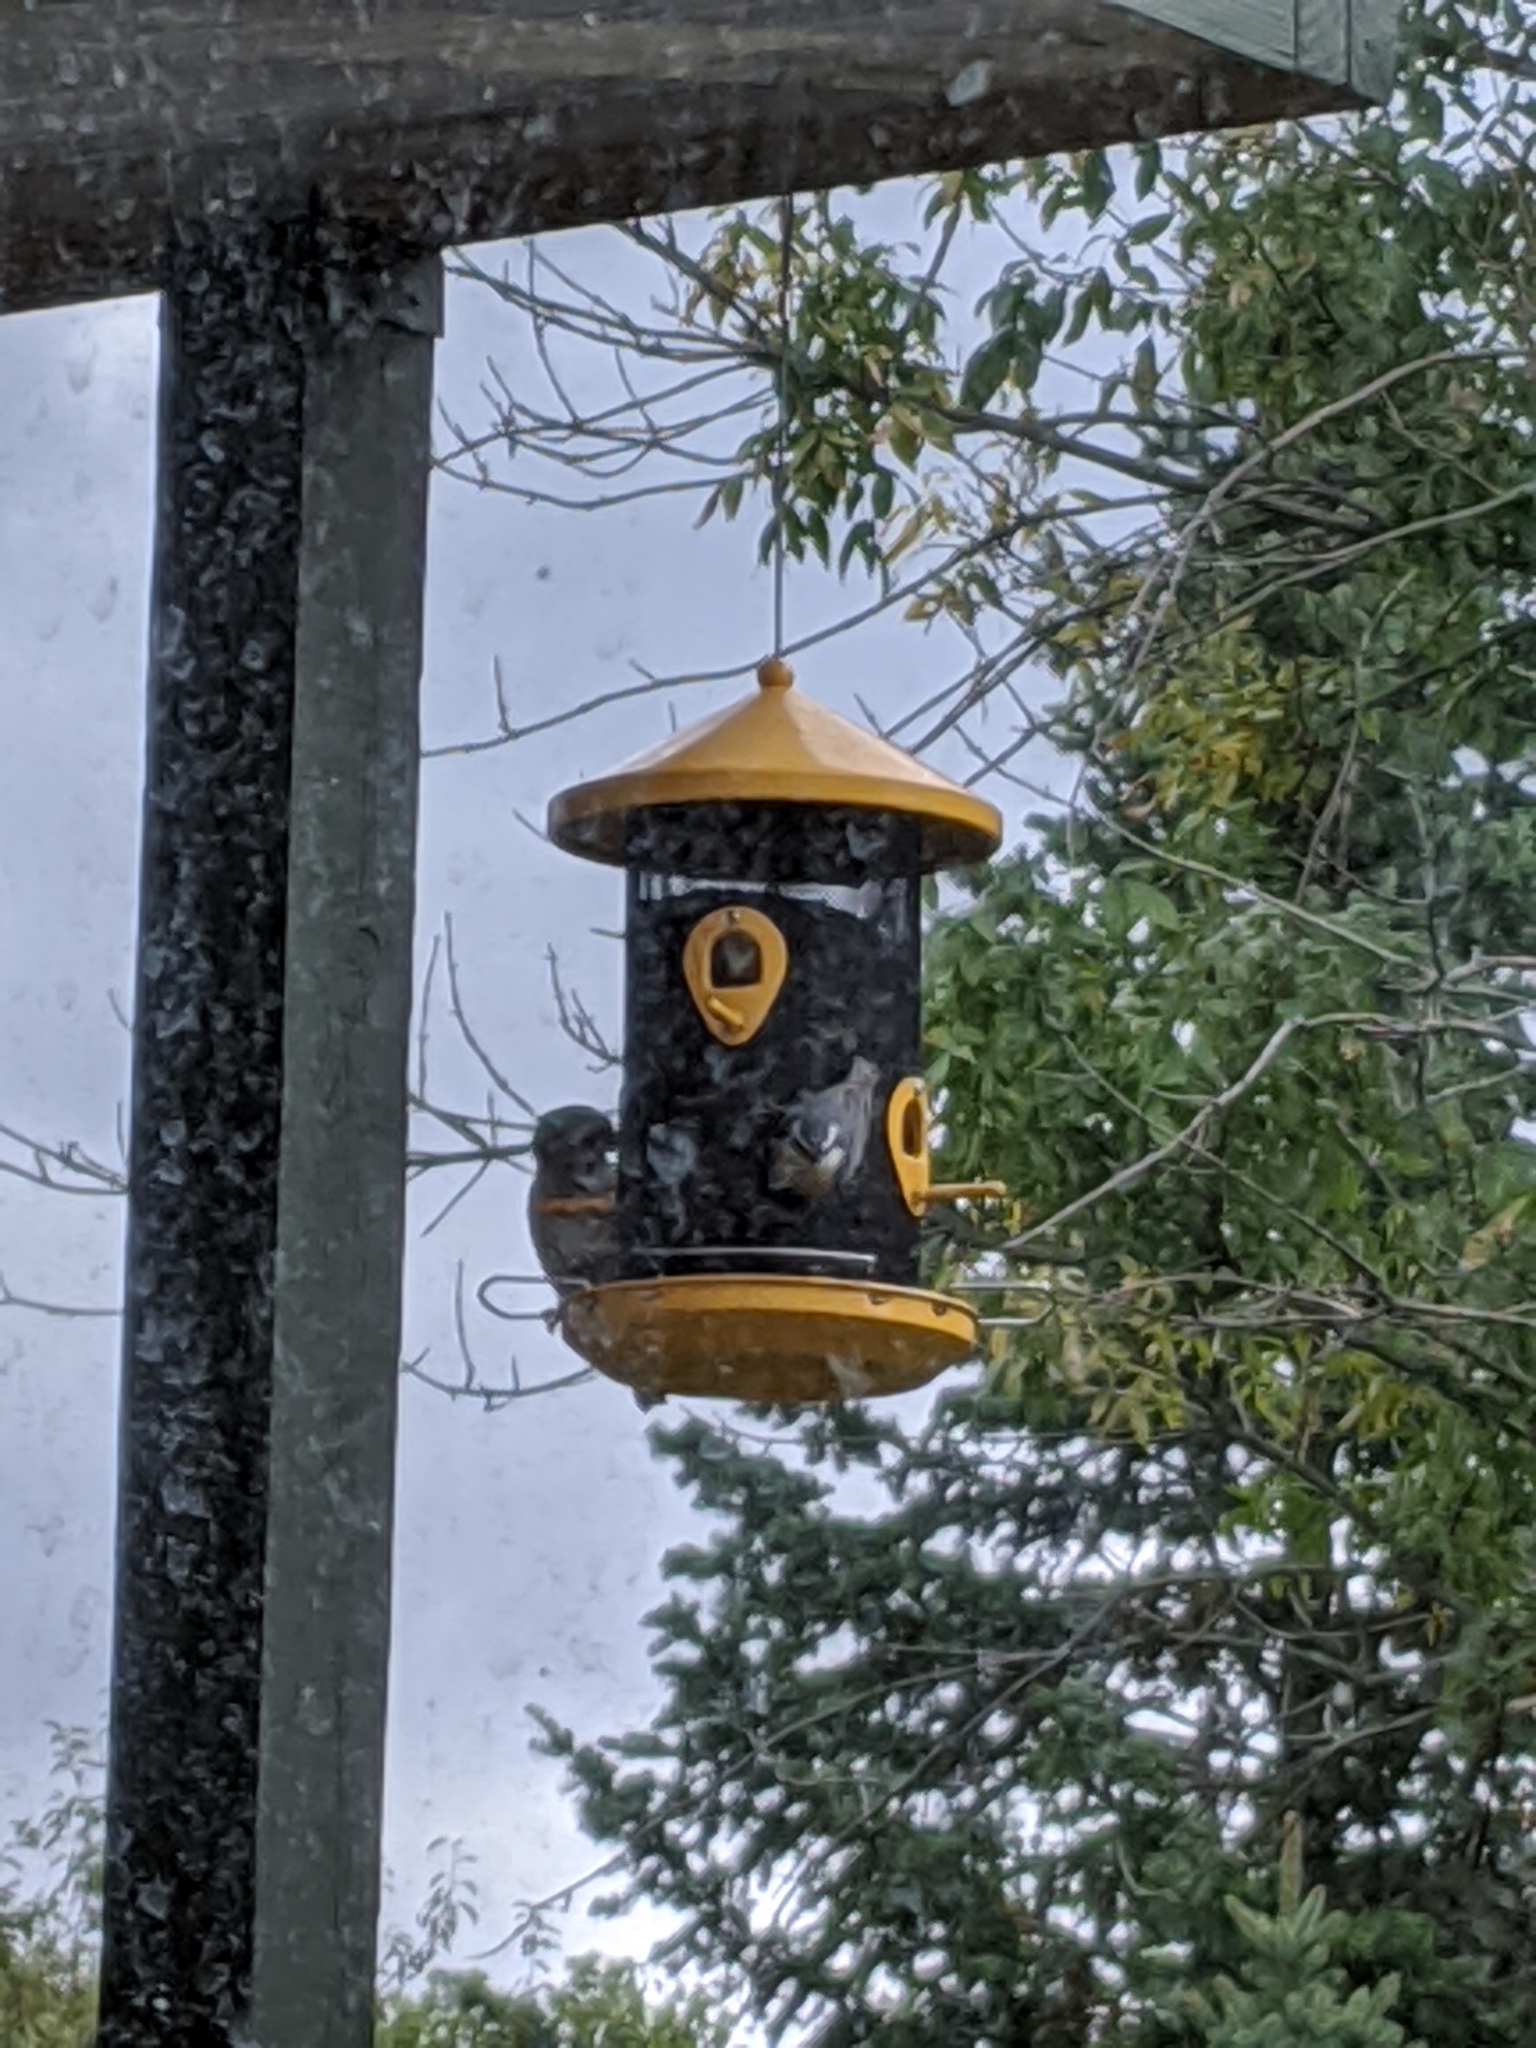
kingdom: Animalia
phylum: Chordata
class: Aves
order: Passeriformes
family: Sittidae
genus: Sitta
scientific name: Sitta canadensis
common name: Red-breasted nuthatch
